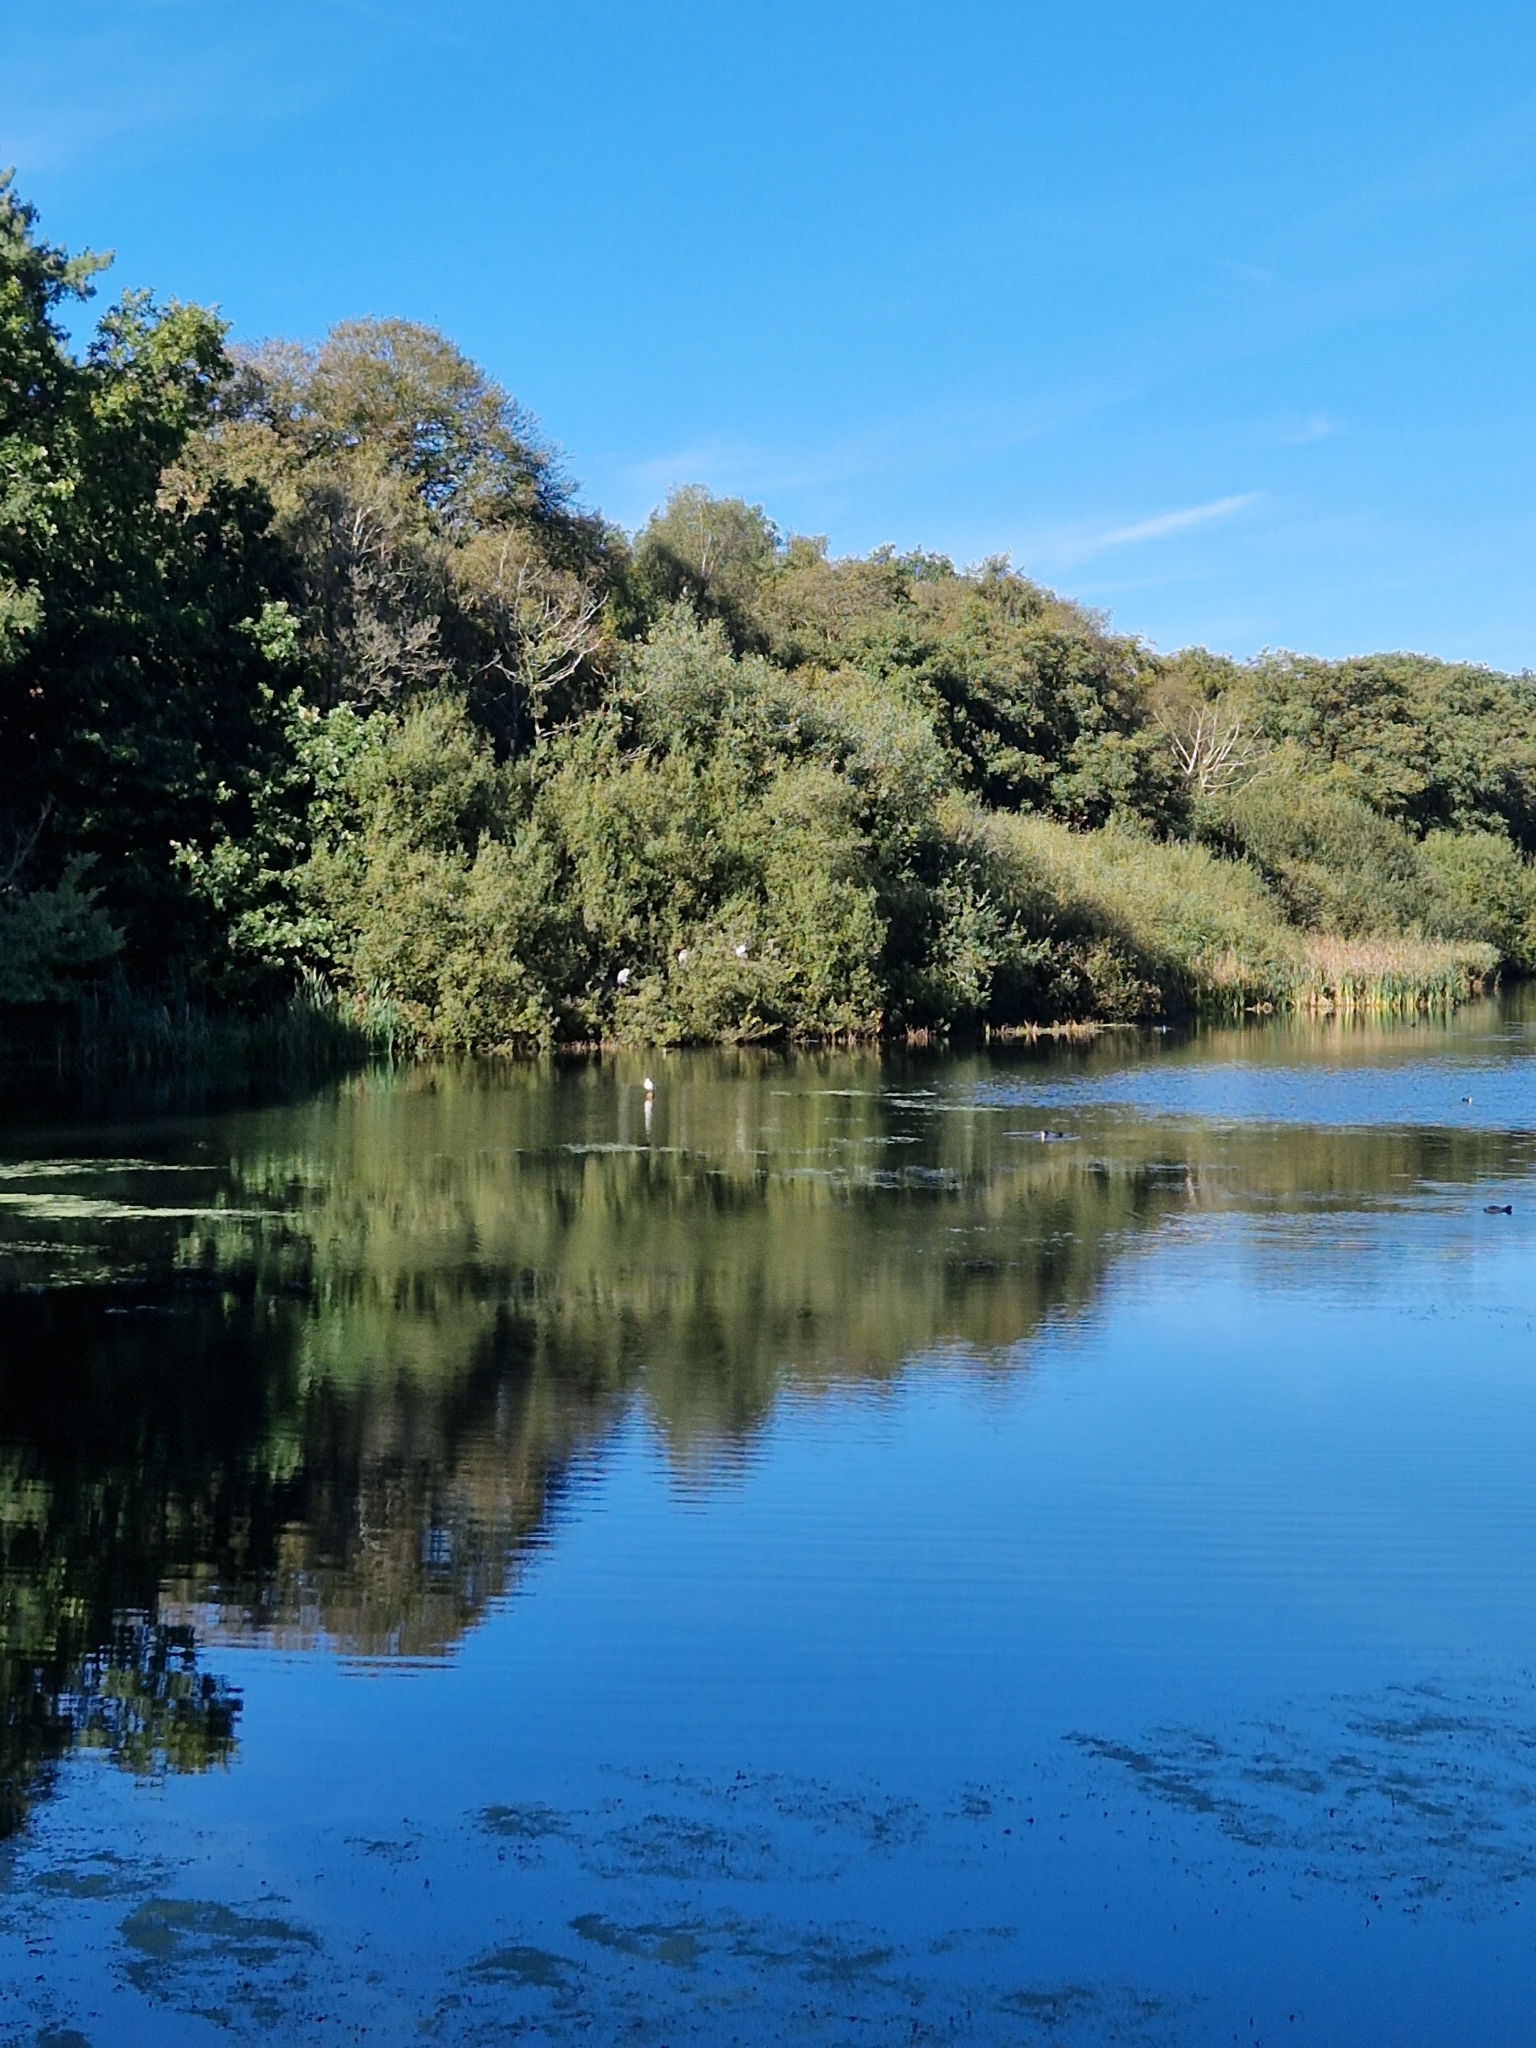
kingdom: Animalia
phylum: Chordata
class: Aves
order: Pelecaniformes
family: Ardeidae
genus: Ardea
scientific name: Ardea cinerea
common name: Grey heron
